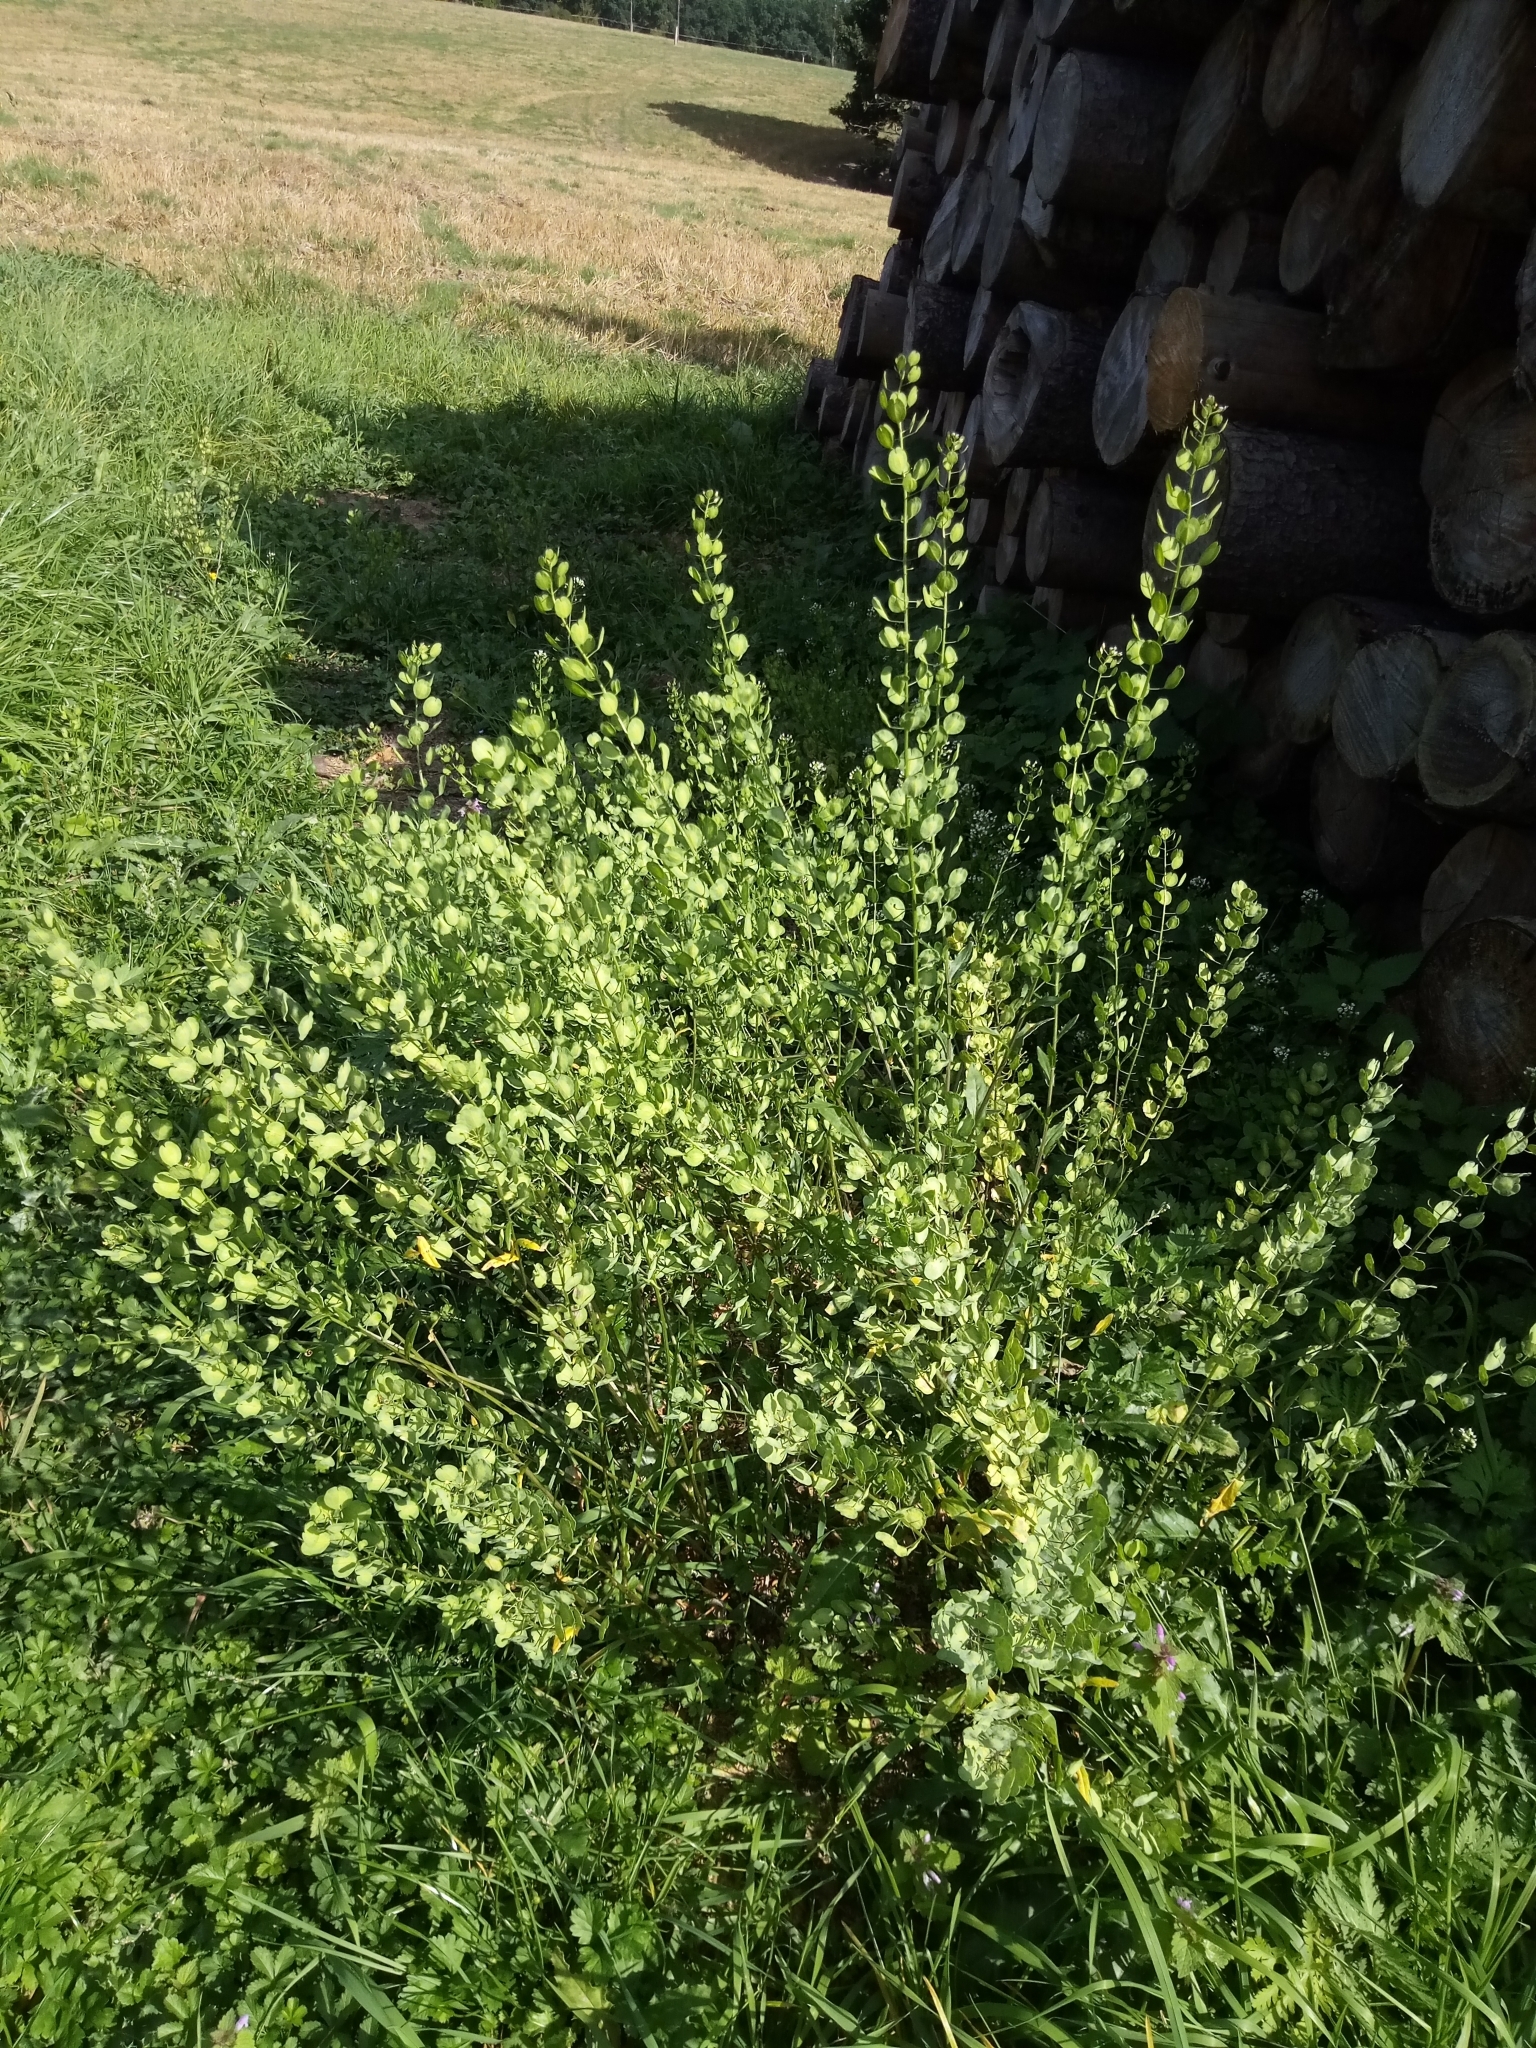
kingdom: Plantae
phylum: Tracheophyta
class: Magnoliopsida
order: Brassicales
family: Brassicaceae
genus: Thlaspi
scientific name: Thlaspi arvense
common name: Field pennycress
